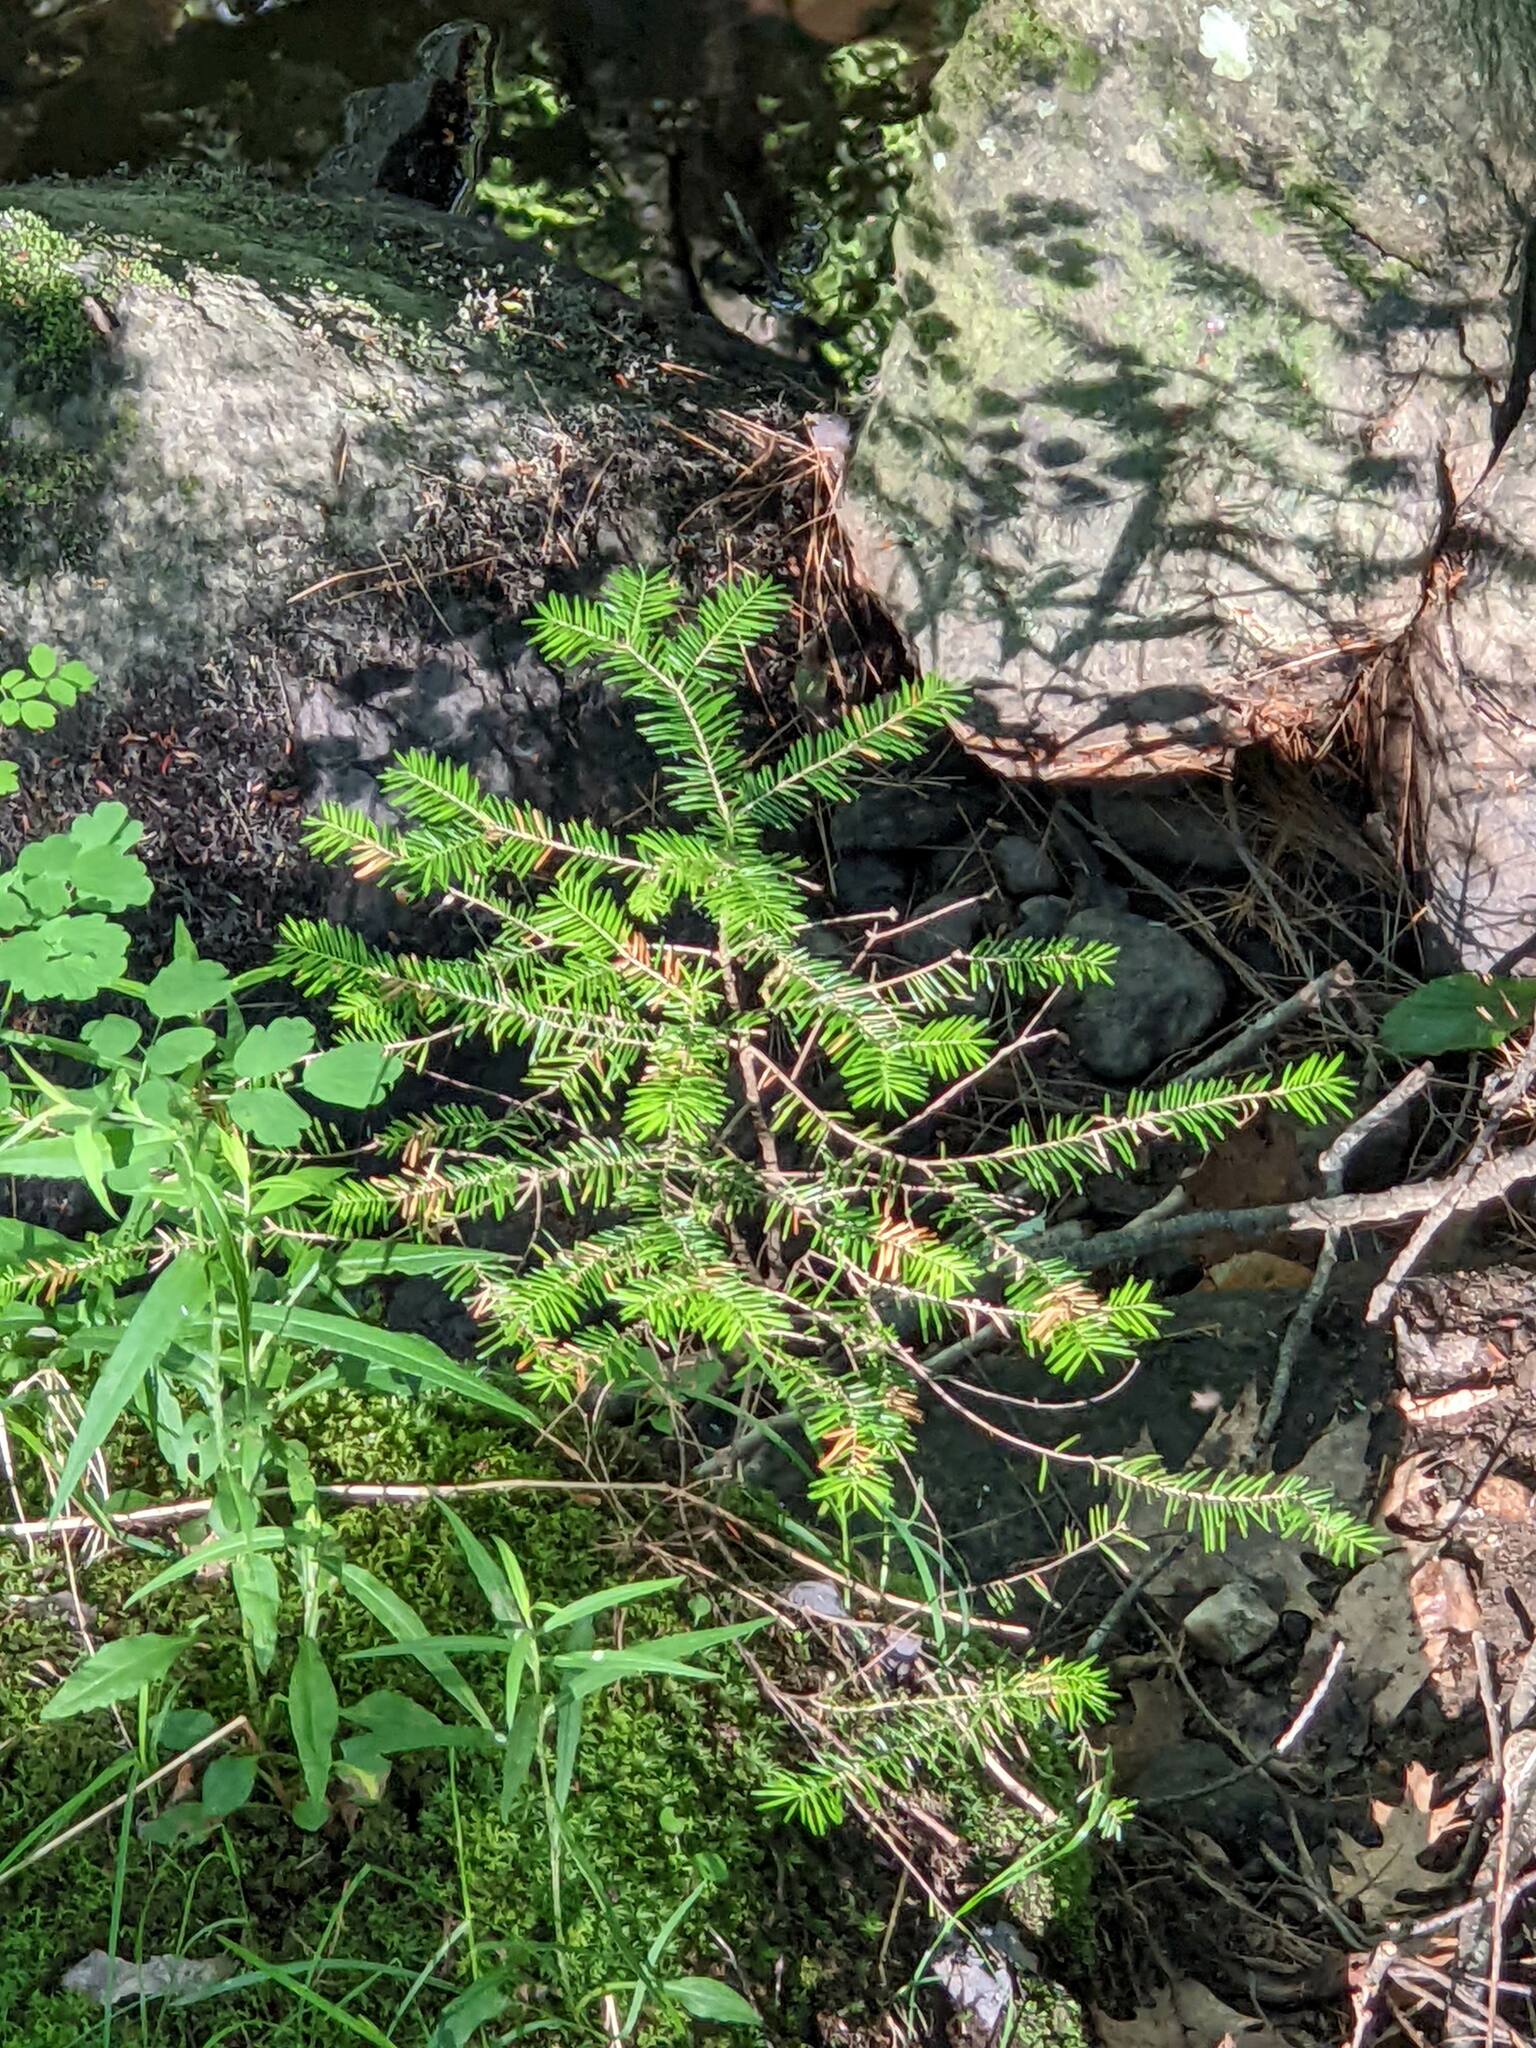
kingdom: Plantae
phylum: Tracheophyta
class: Pinopsida
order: Pinales
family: Pinaceae
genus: Abies
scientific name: Abies balsamea
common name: Balsam fir
